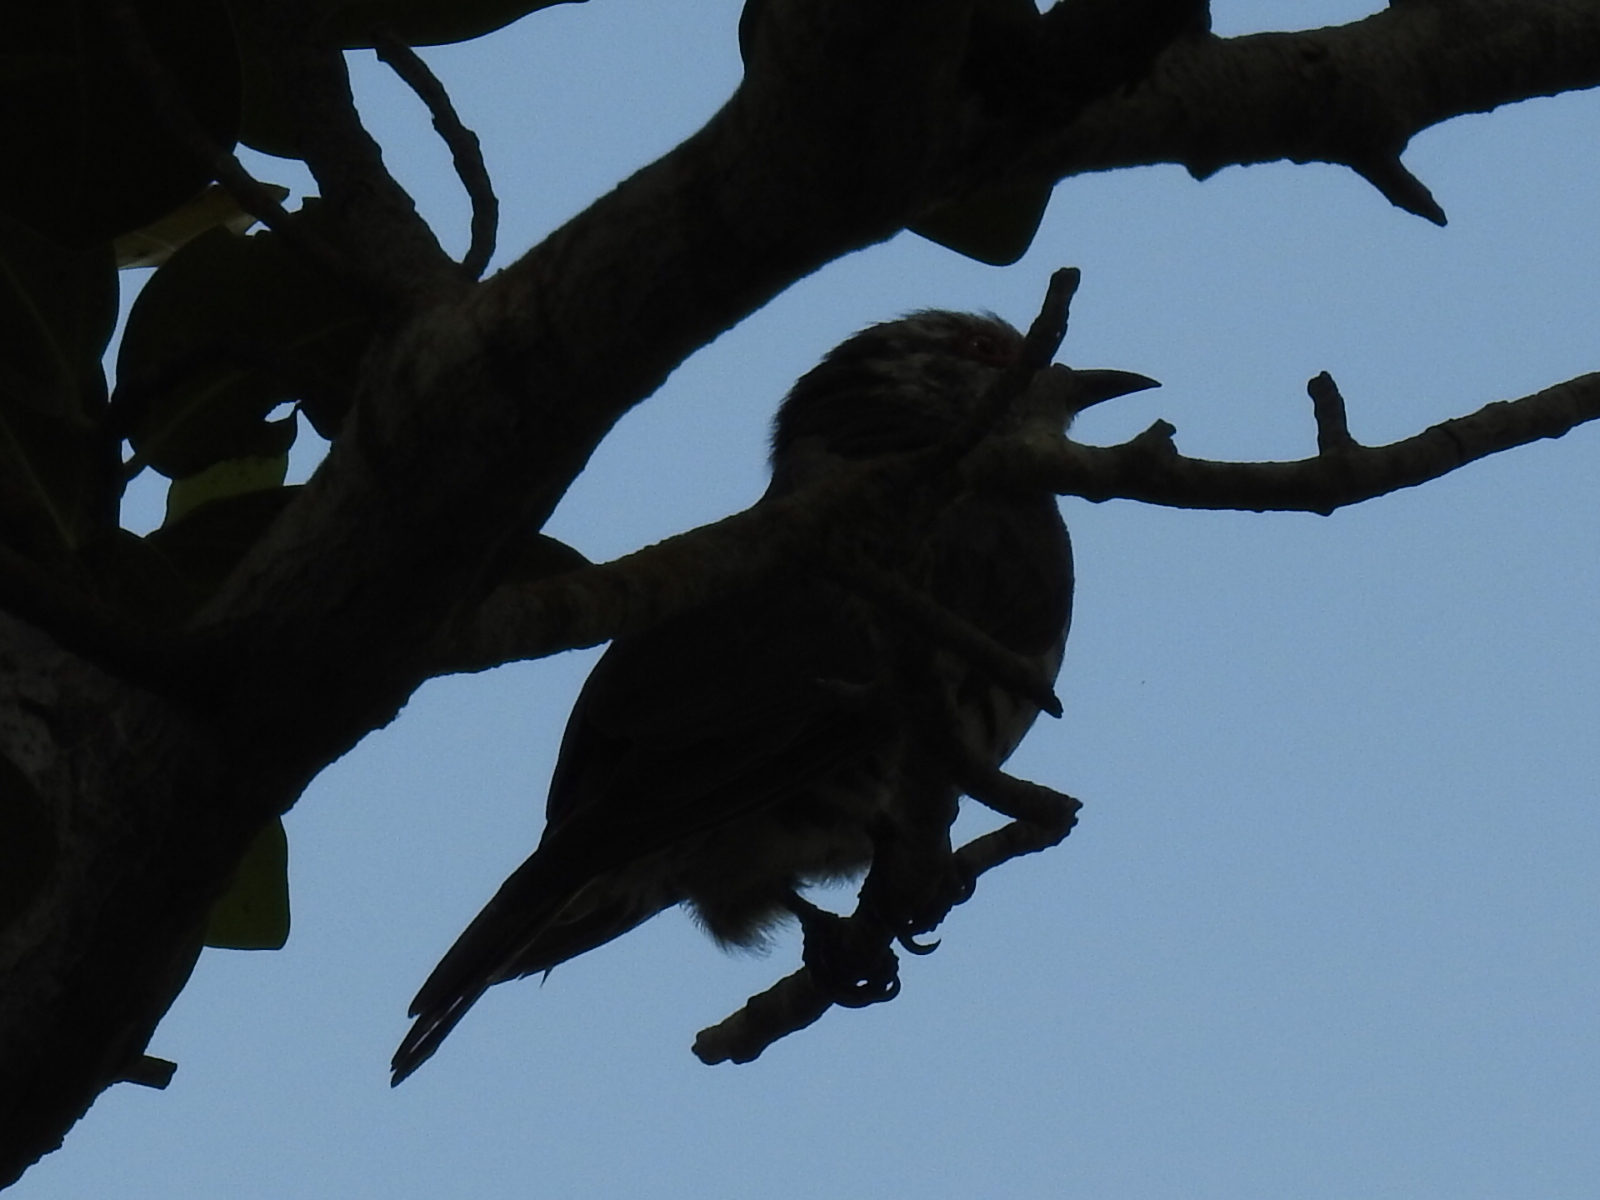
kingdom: Animalia
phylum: Chordata
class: Aves
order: Cuculiformes
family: Cuculidae
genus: Chrysococcyx
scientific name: Chrysococcyx minutillus
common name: Little bronze cuckoo
